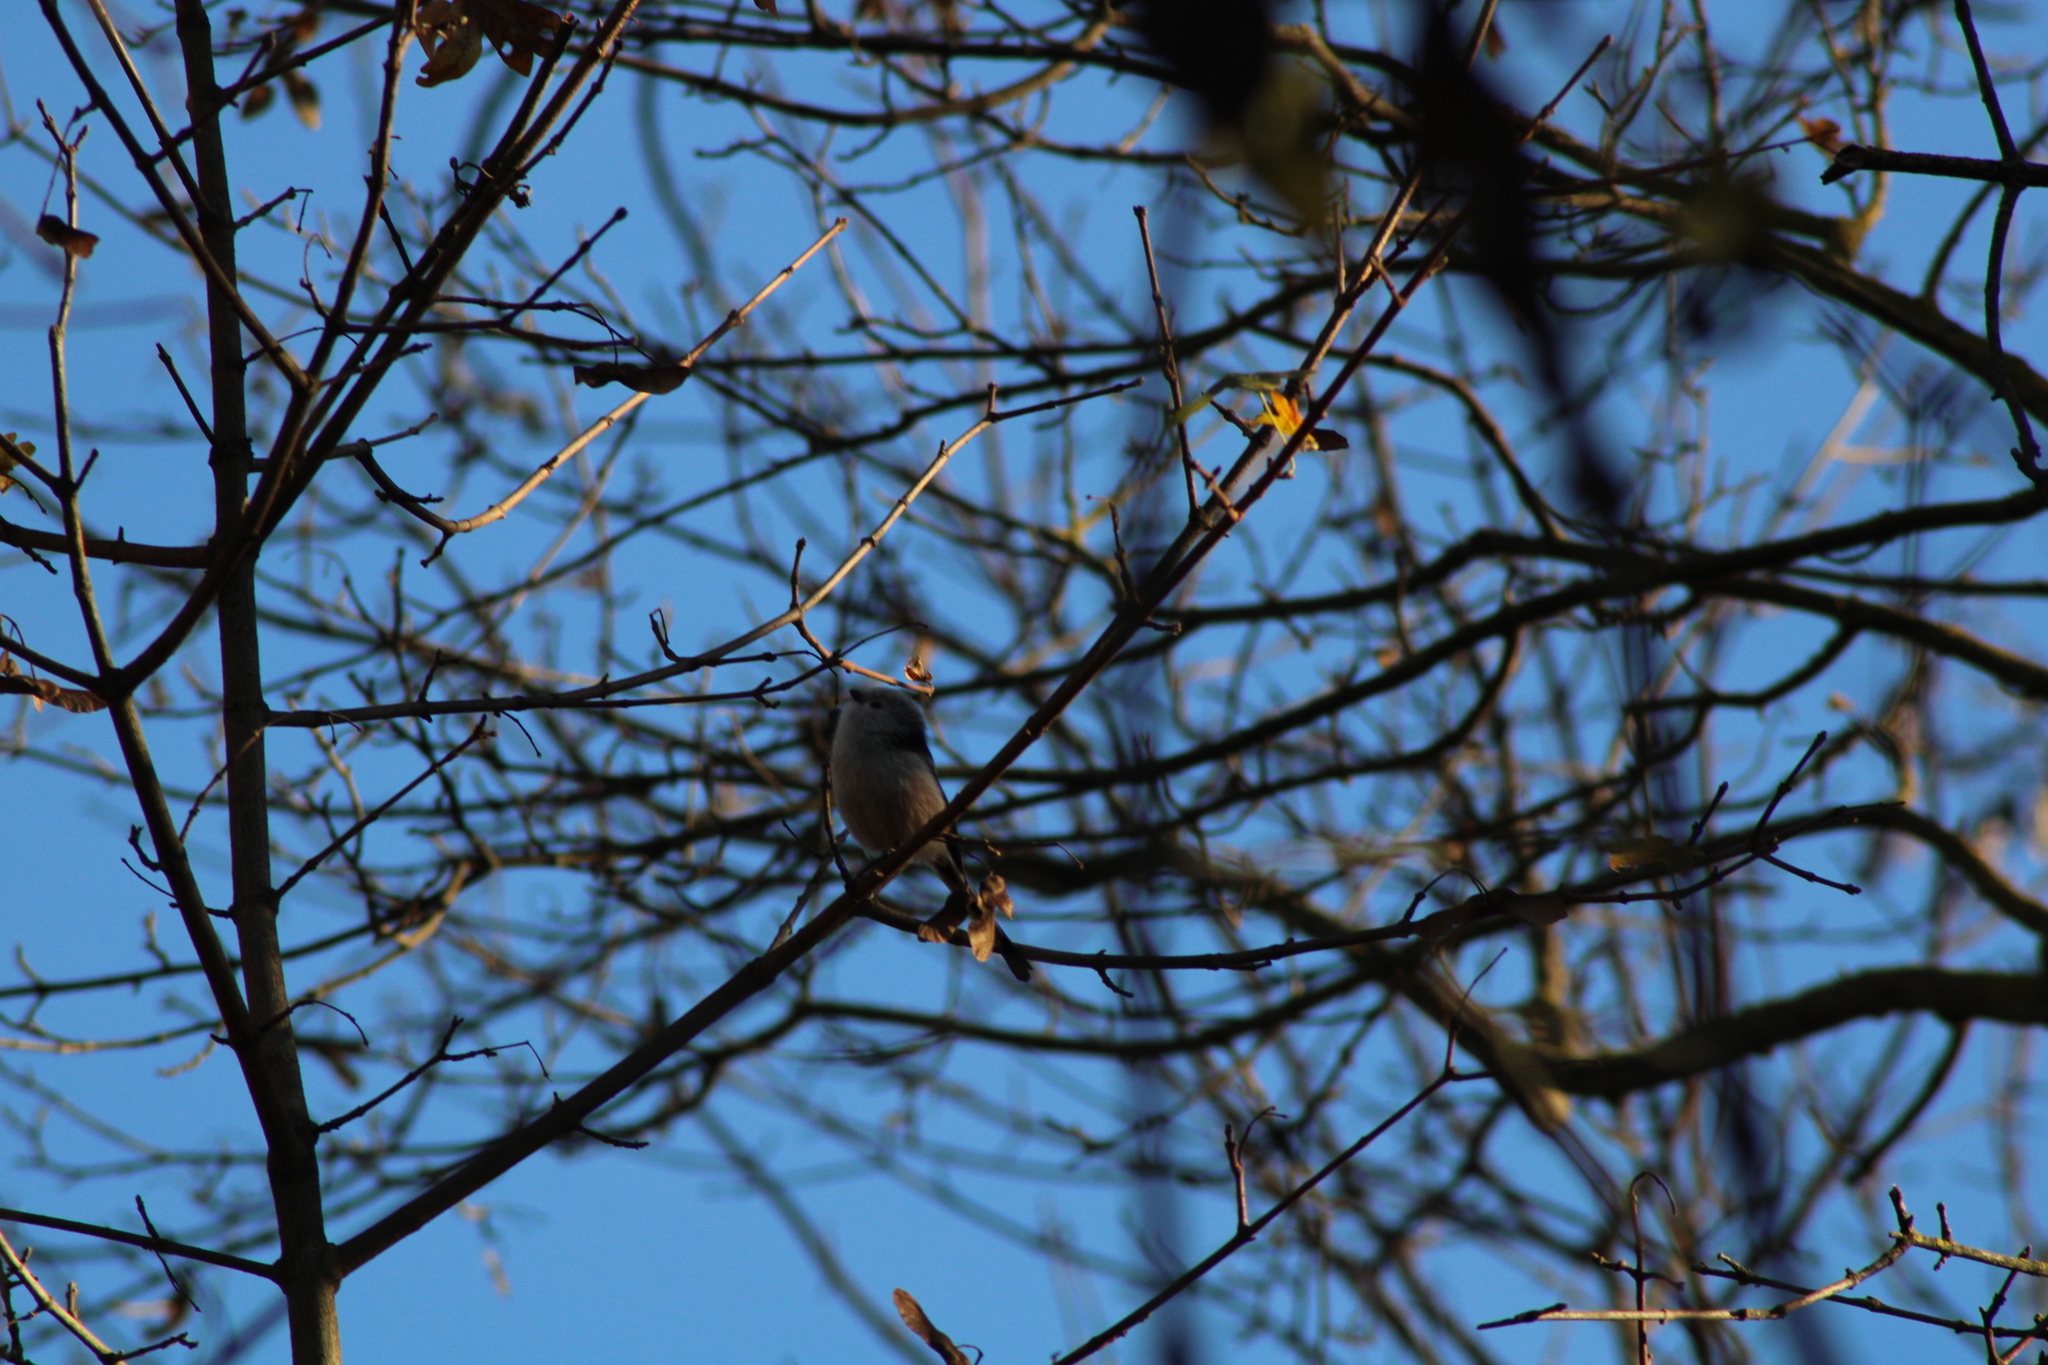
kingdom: Animalia
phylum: Chordata
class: Aves
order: Passeriformes
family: Aegithalidae
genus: Aegithalos
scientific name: Aegithalos caudatus
